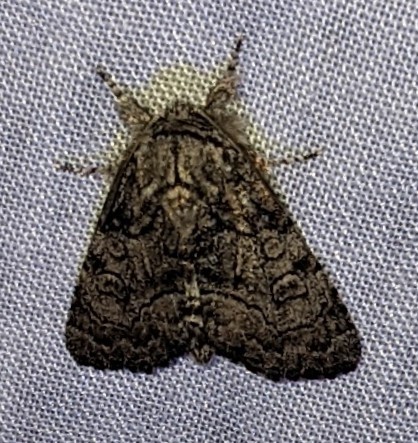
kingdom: Animalia
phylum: Arthropoda
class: Insecta
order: Lepidoptera
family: Noctuidae
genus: Raphia
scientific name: Raphia frater
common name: Brother
